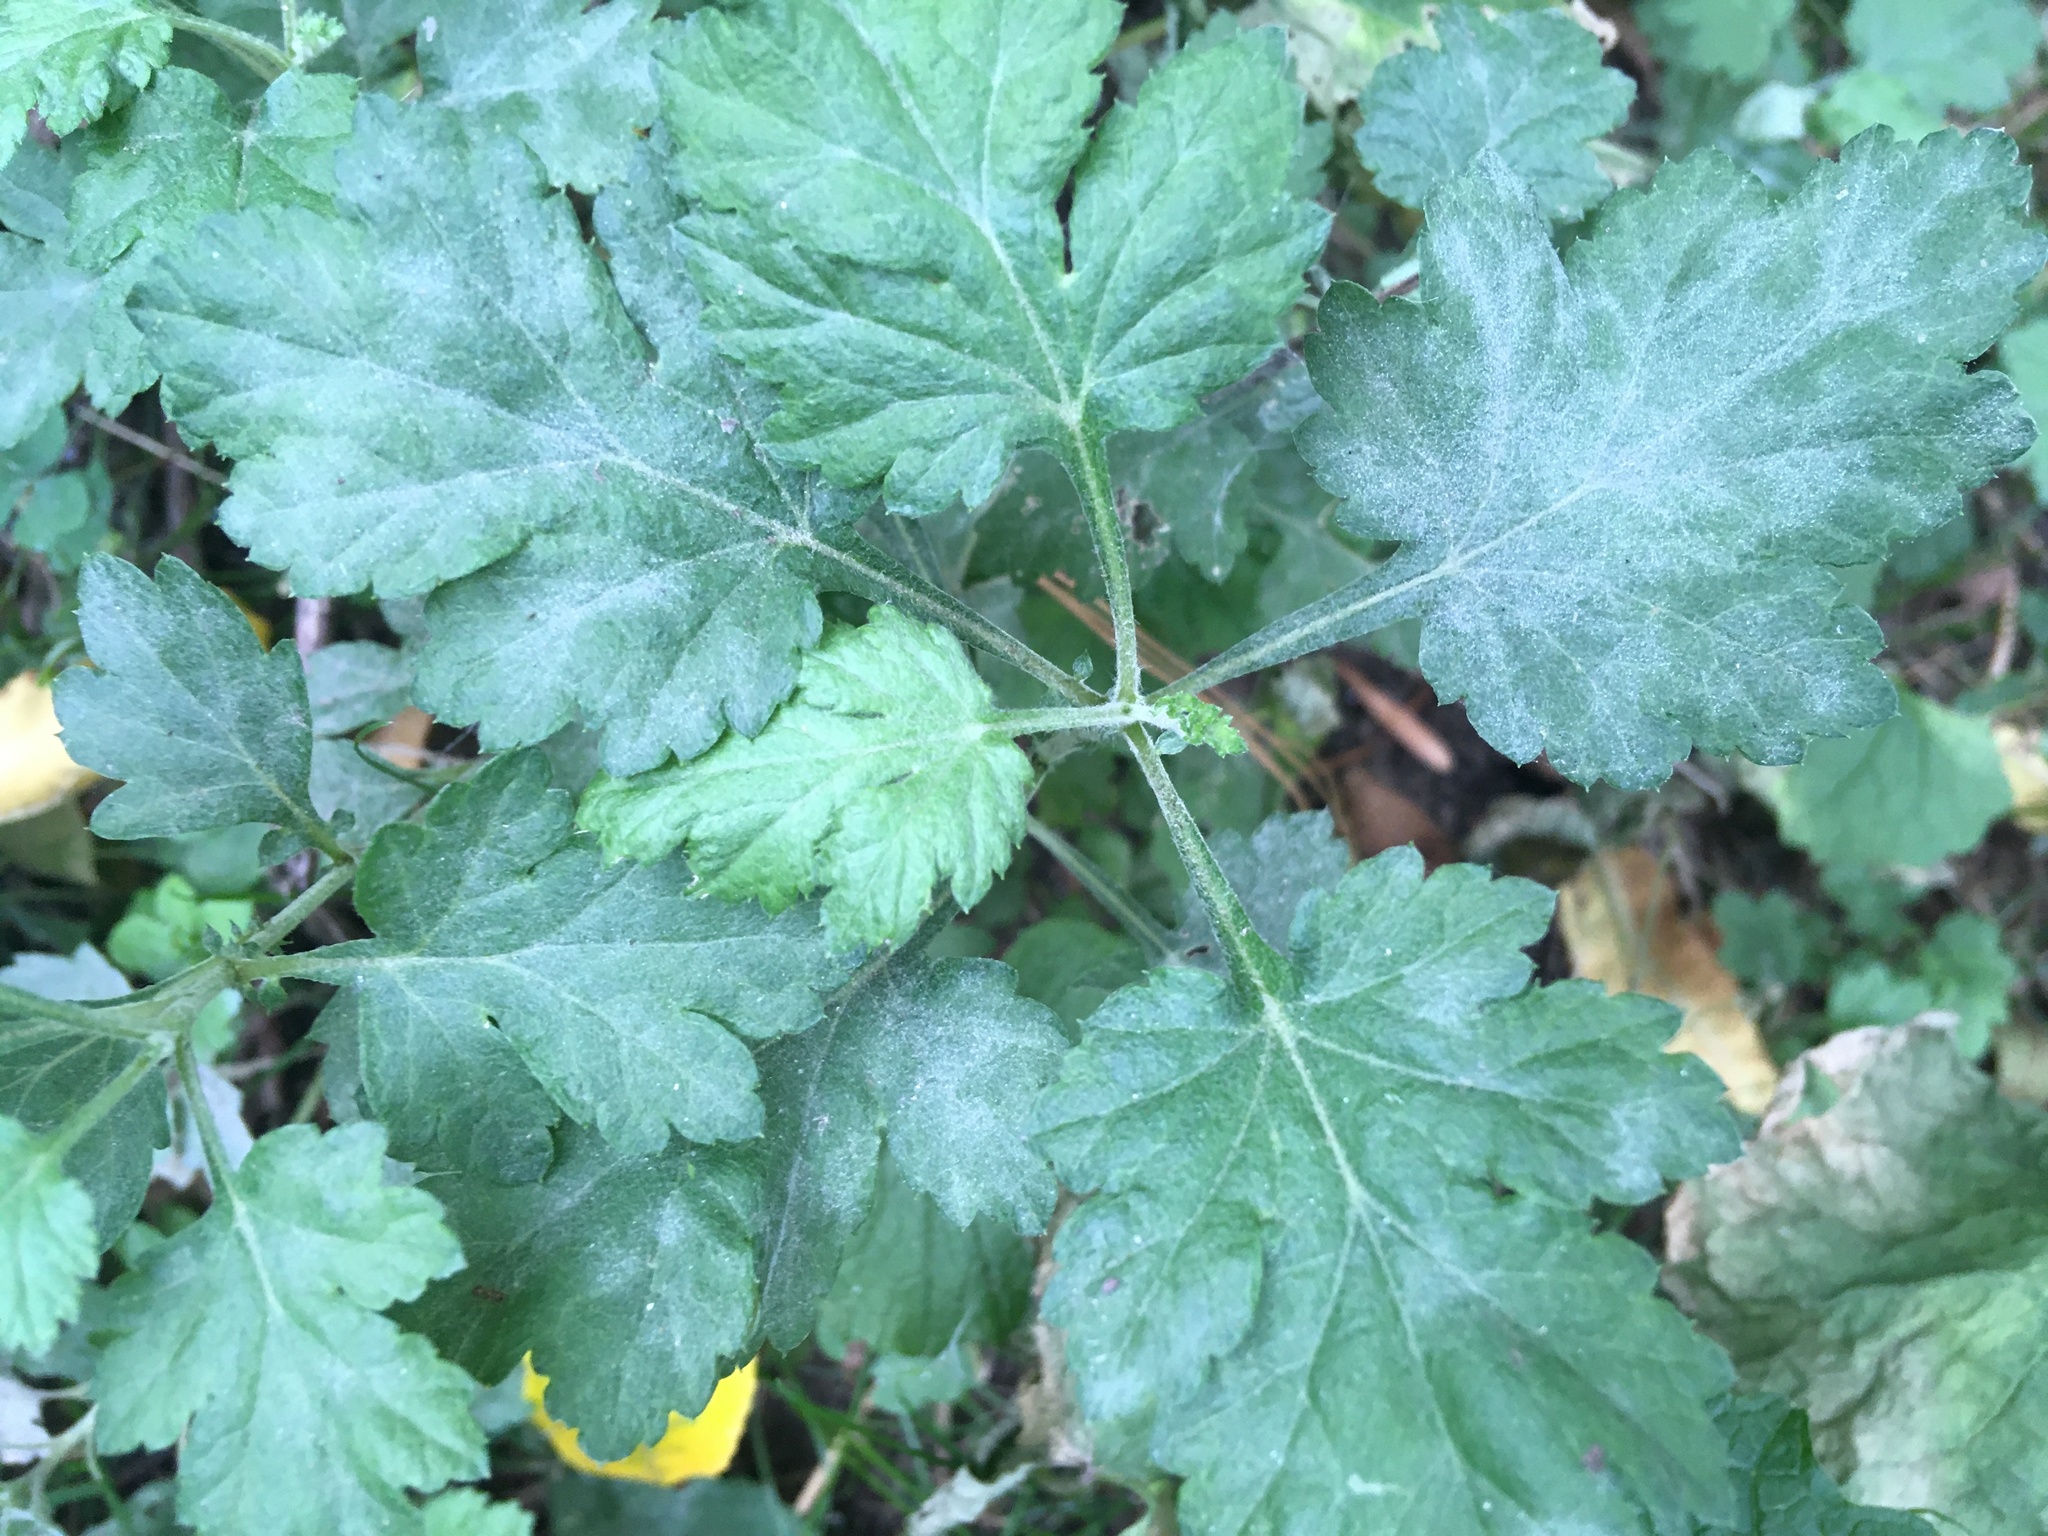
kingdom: Plantae
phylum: Tracheophyta
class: Magnoliopsida
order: Asterales
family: Asteraceae
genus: Artemisia
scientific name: Artemisia vulgaris
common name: Mugwort
